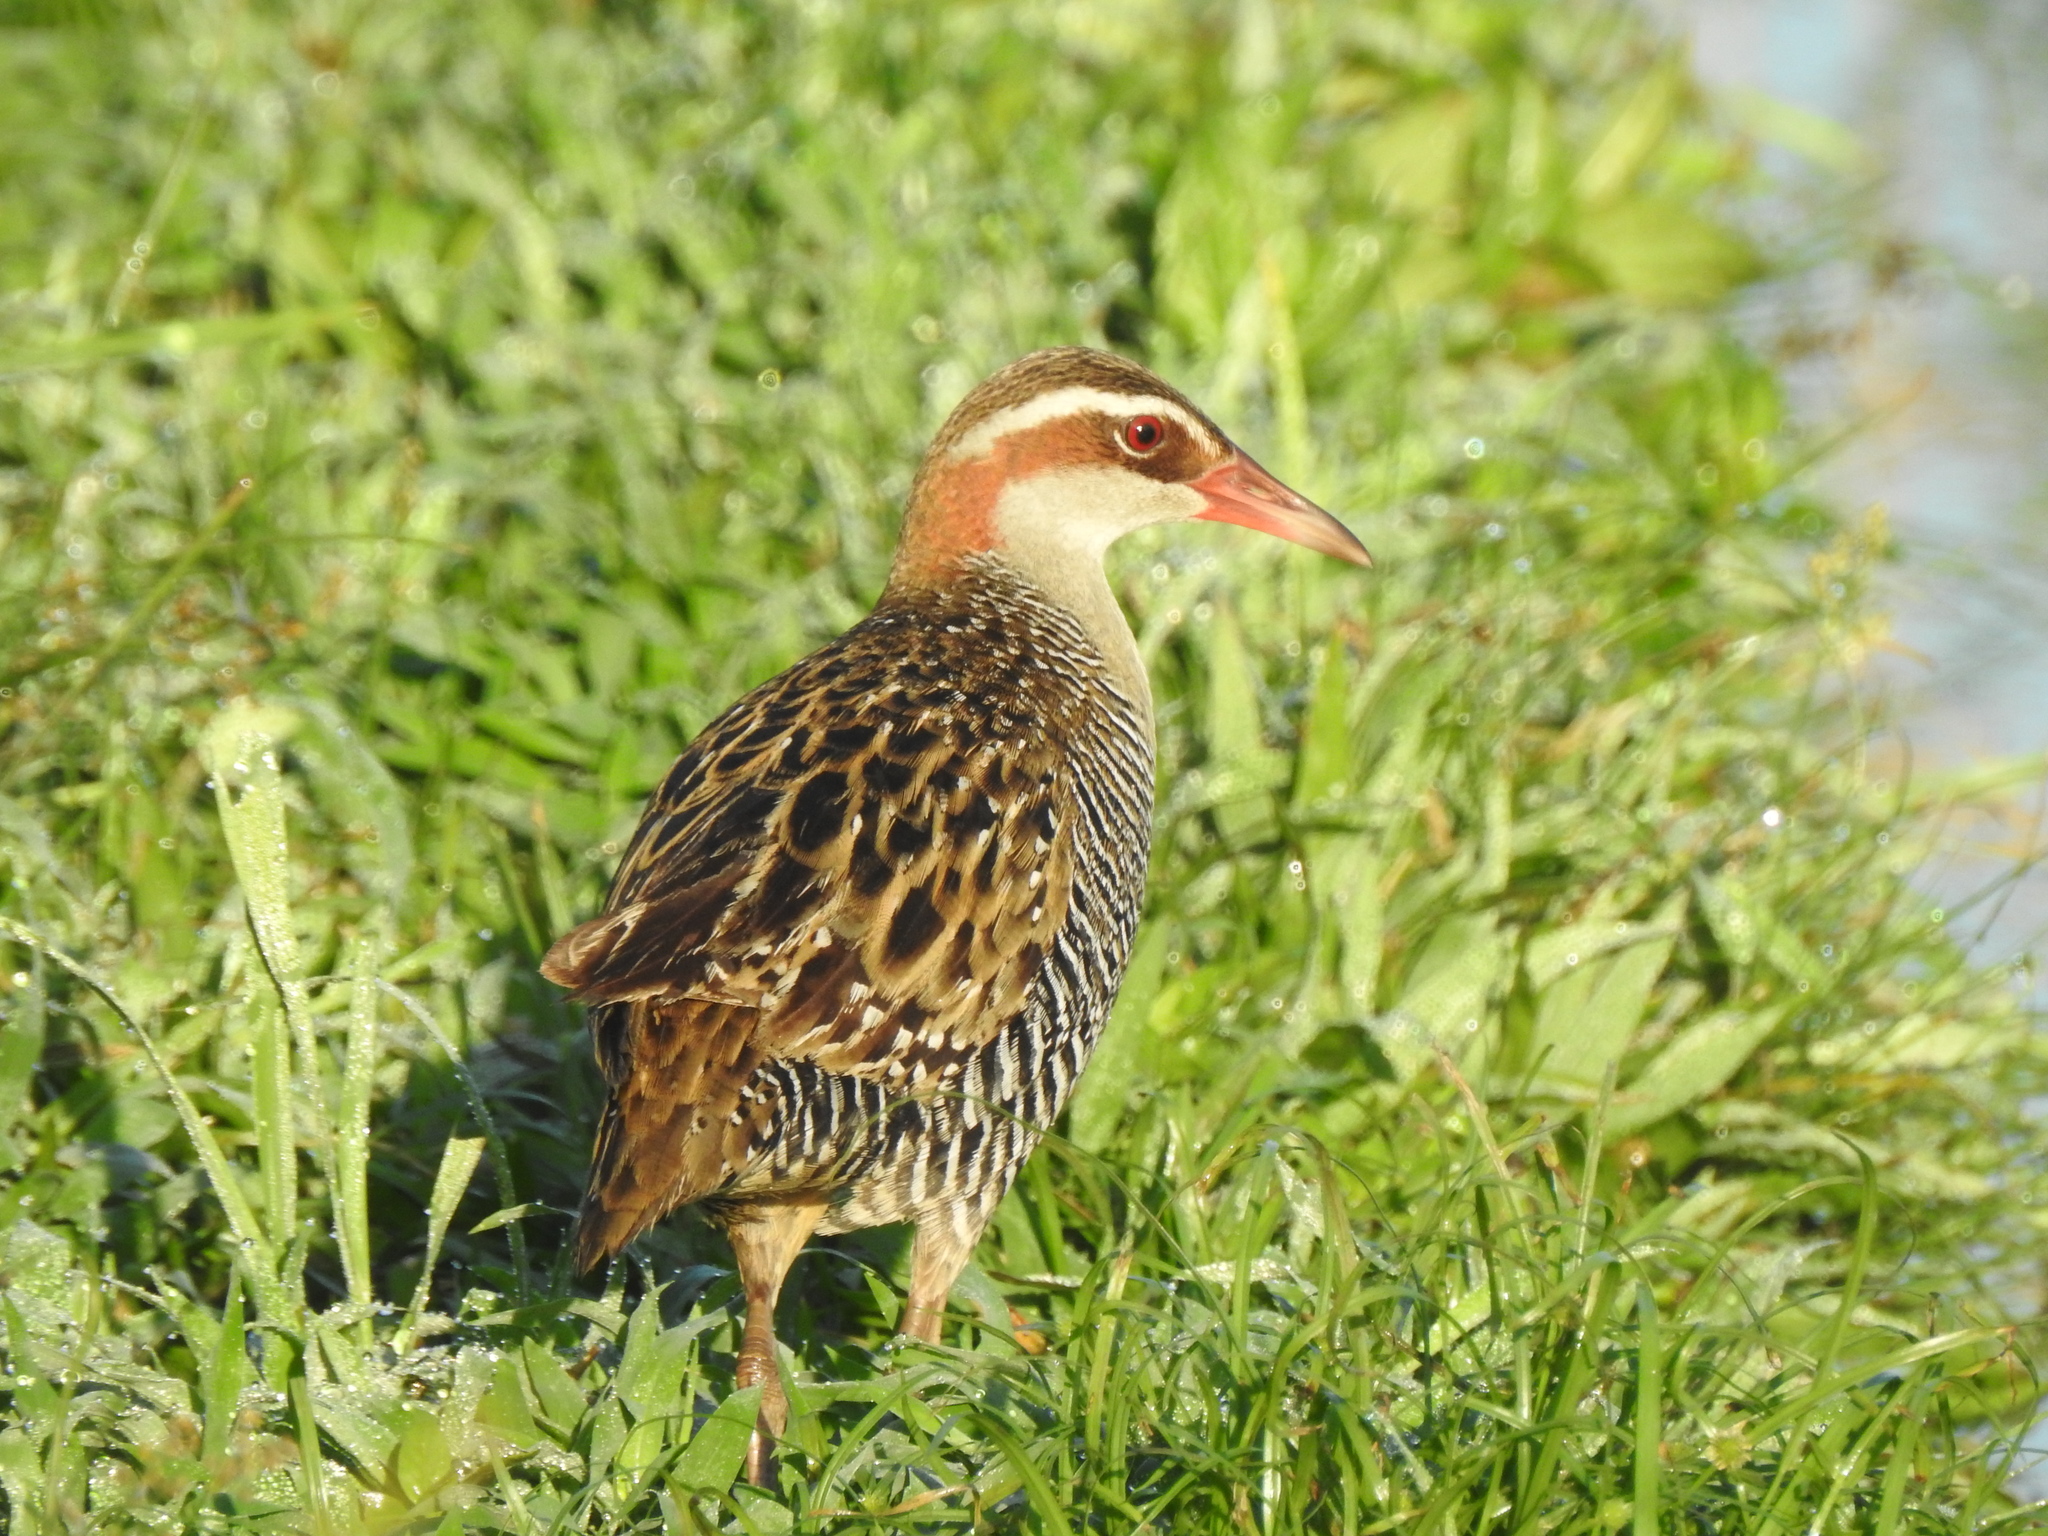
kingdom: Animalia
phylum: Chordata
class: Aves
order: Gruiformes
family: Rallidae
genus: Gallirallus
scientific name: Gallirallus philippensis
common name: Buff-banded rail
